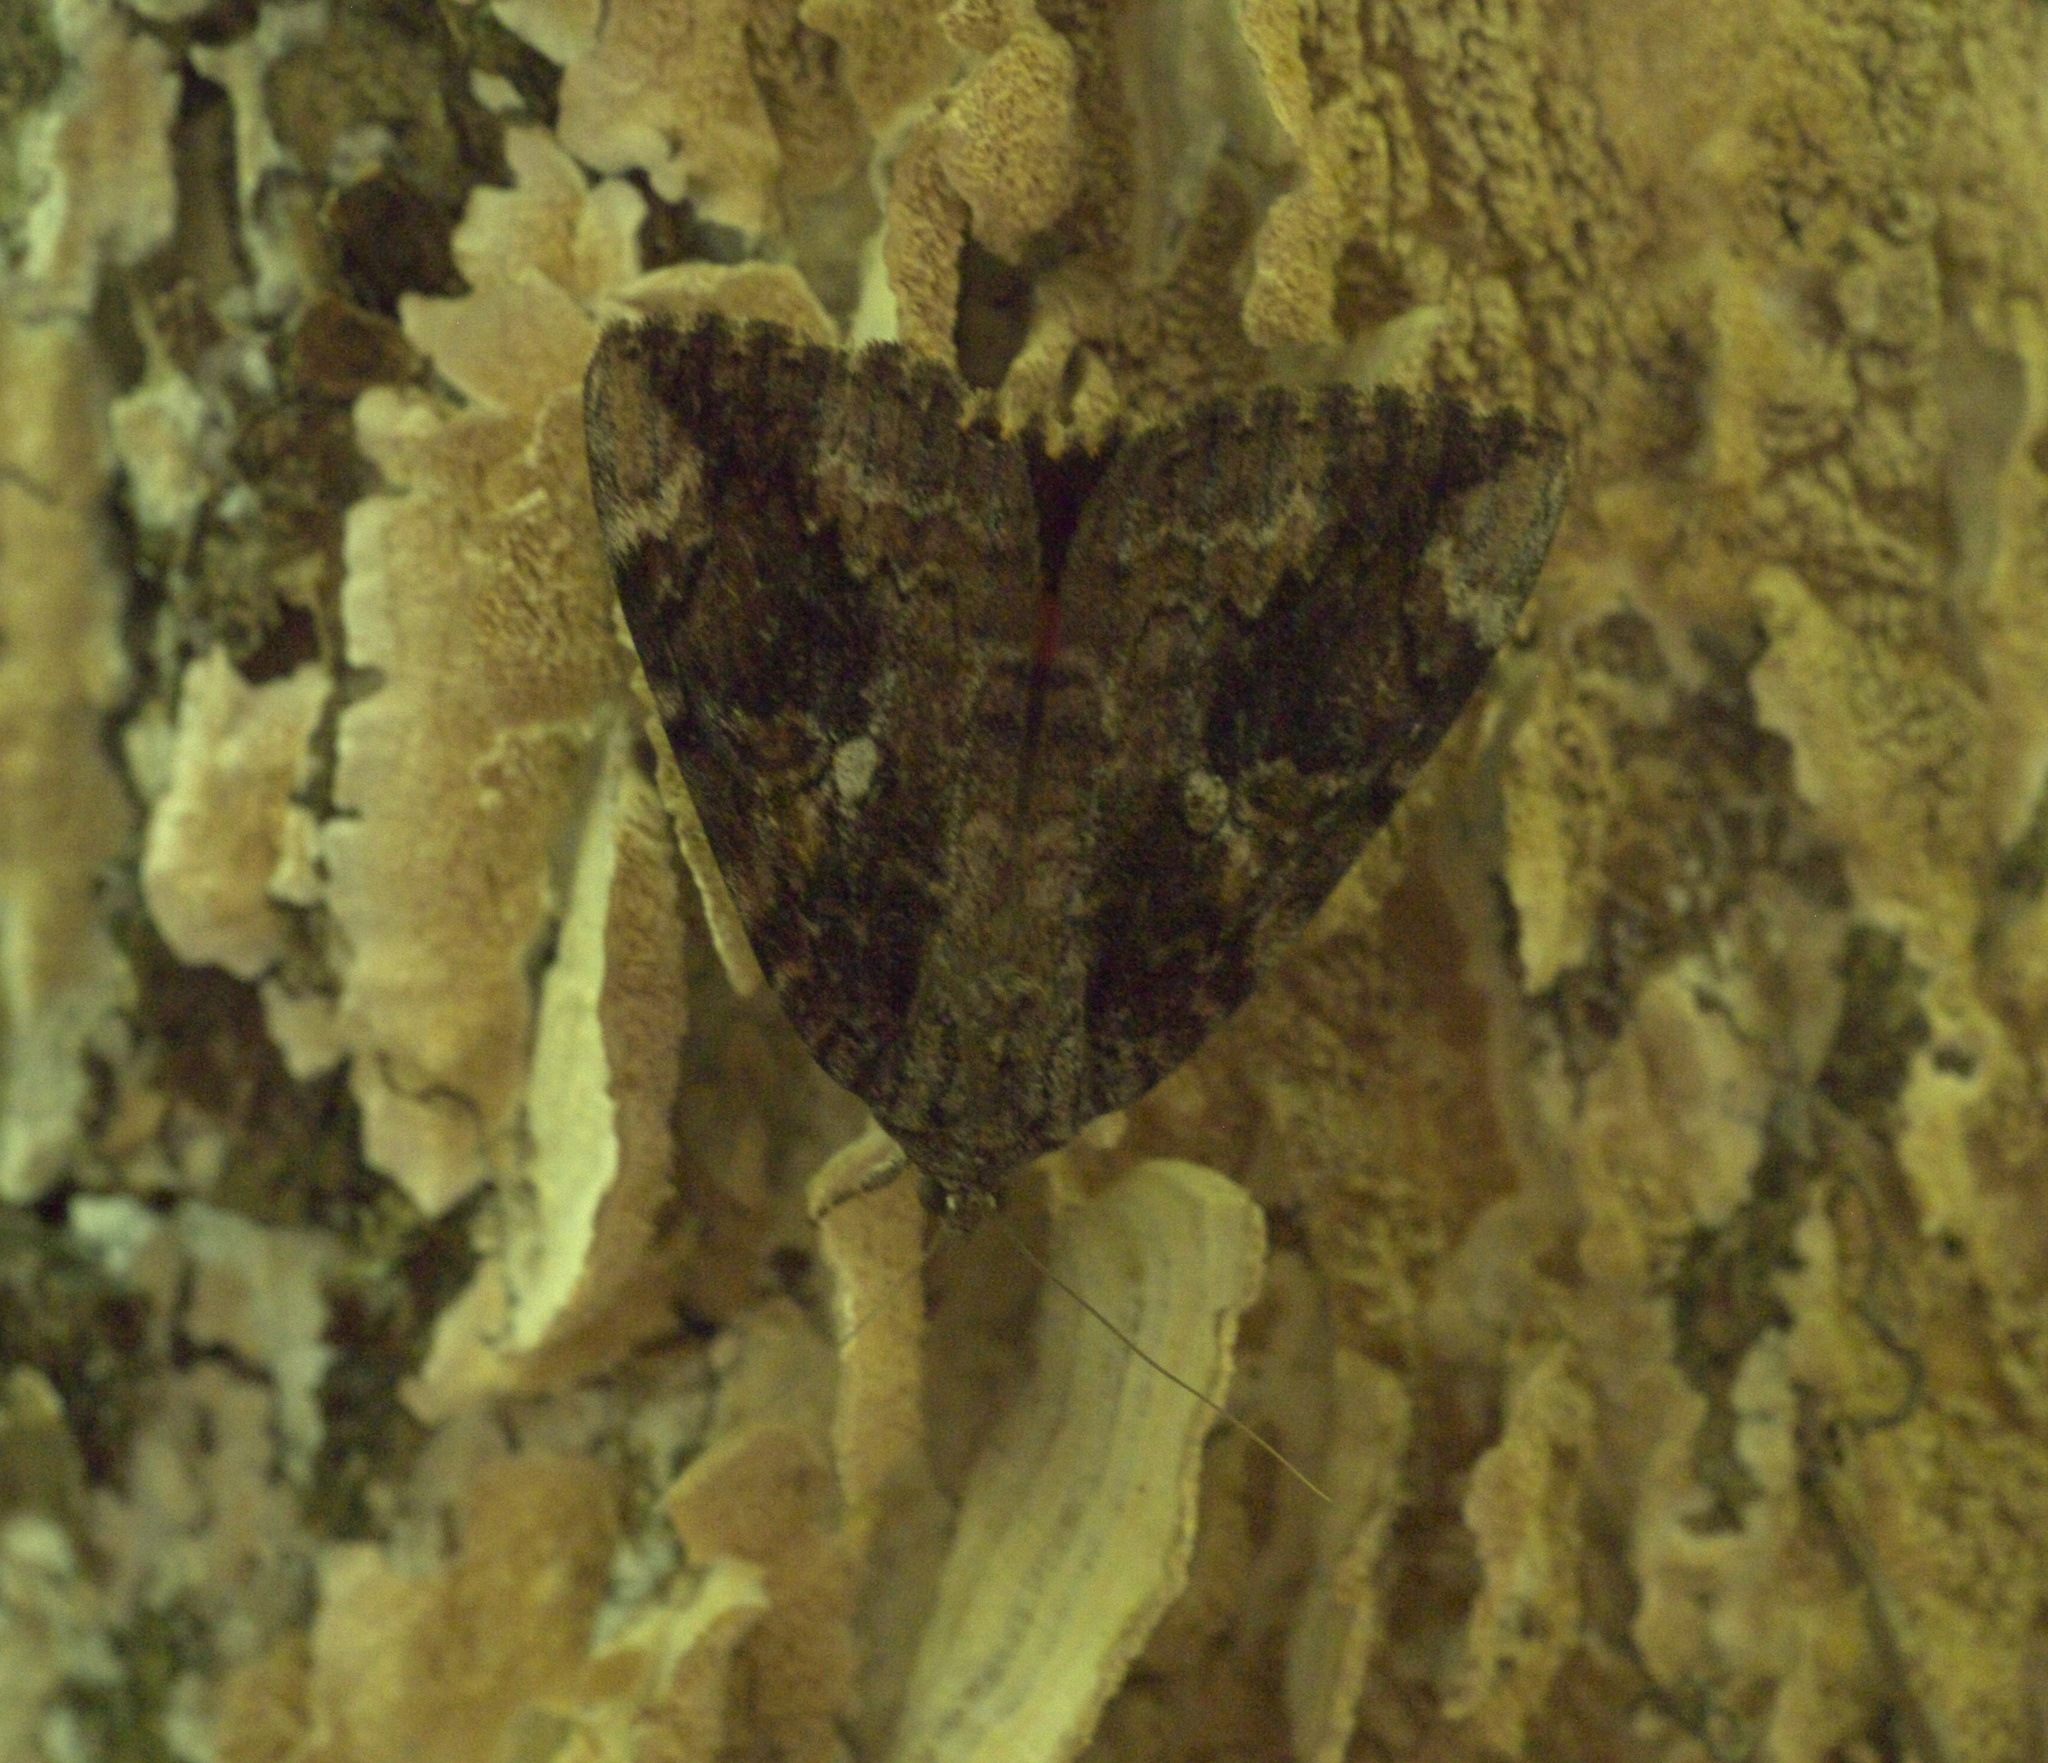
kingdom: Animalia
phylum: Arthropoda
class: Insecta
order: Lepidoptera
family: Erebidae
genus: Catocala
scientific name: Catocala innubens
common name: Betrothed underwing
